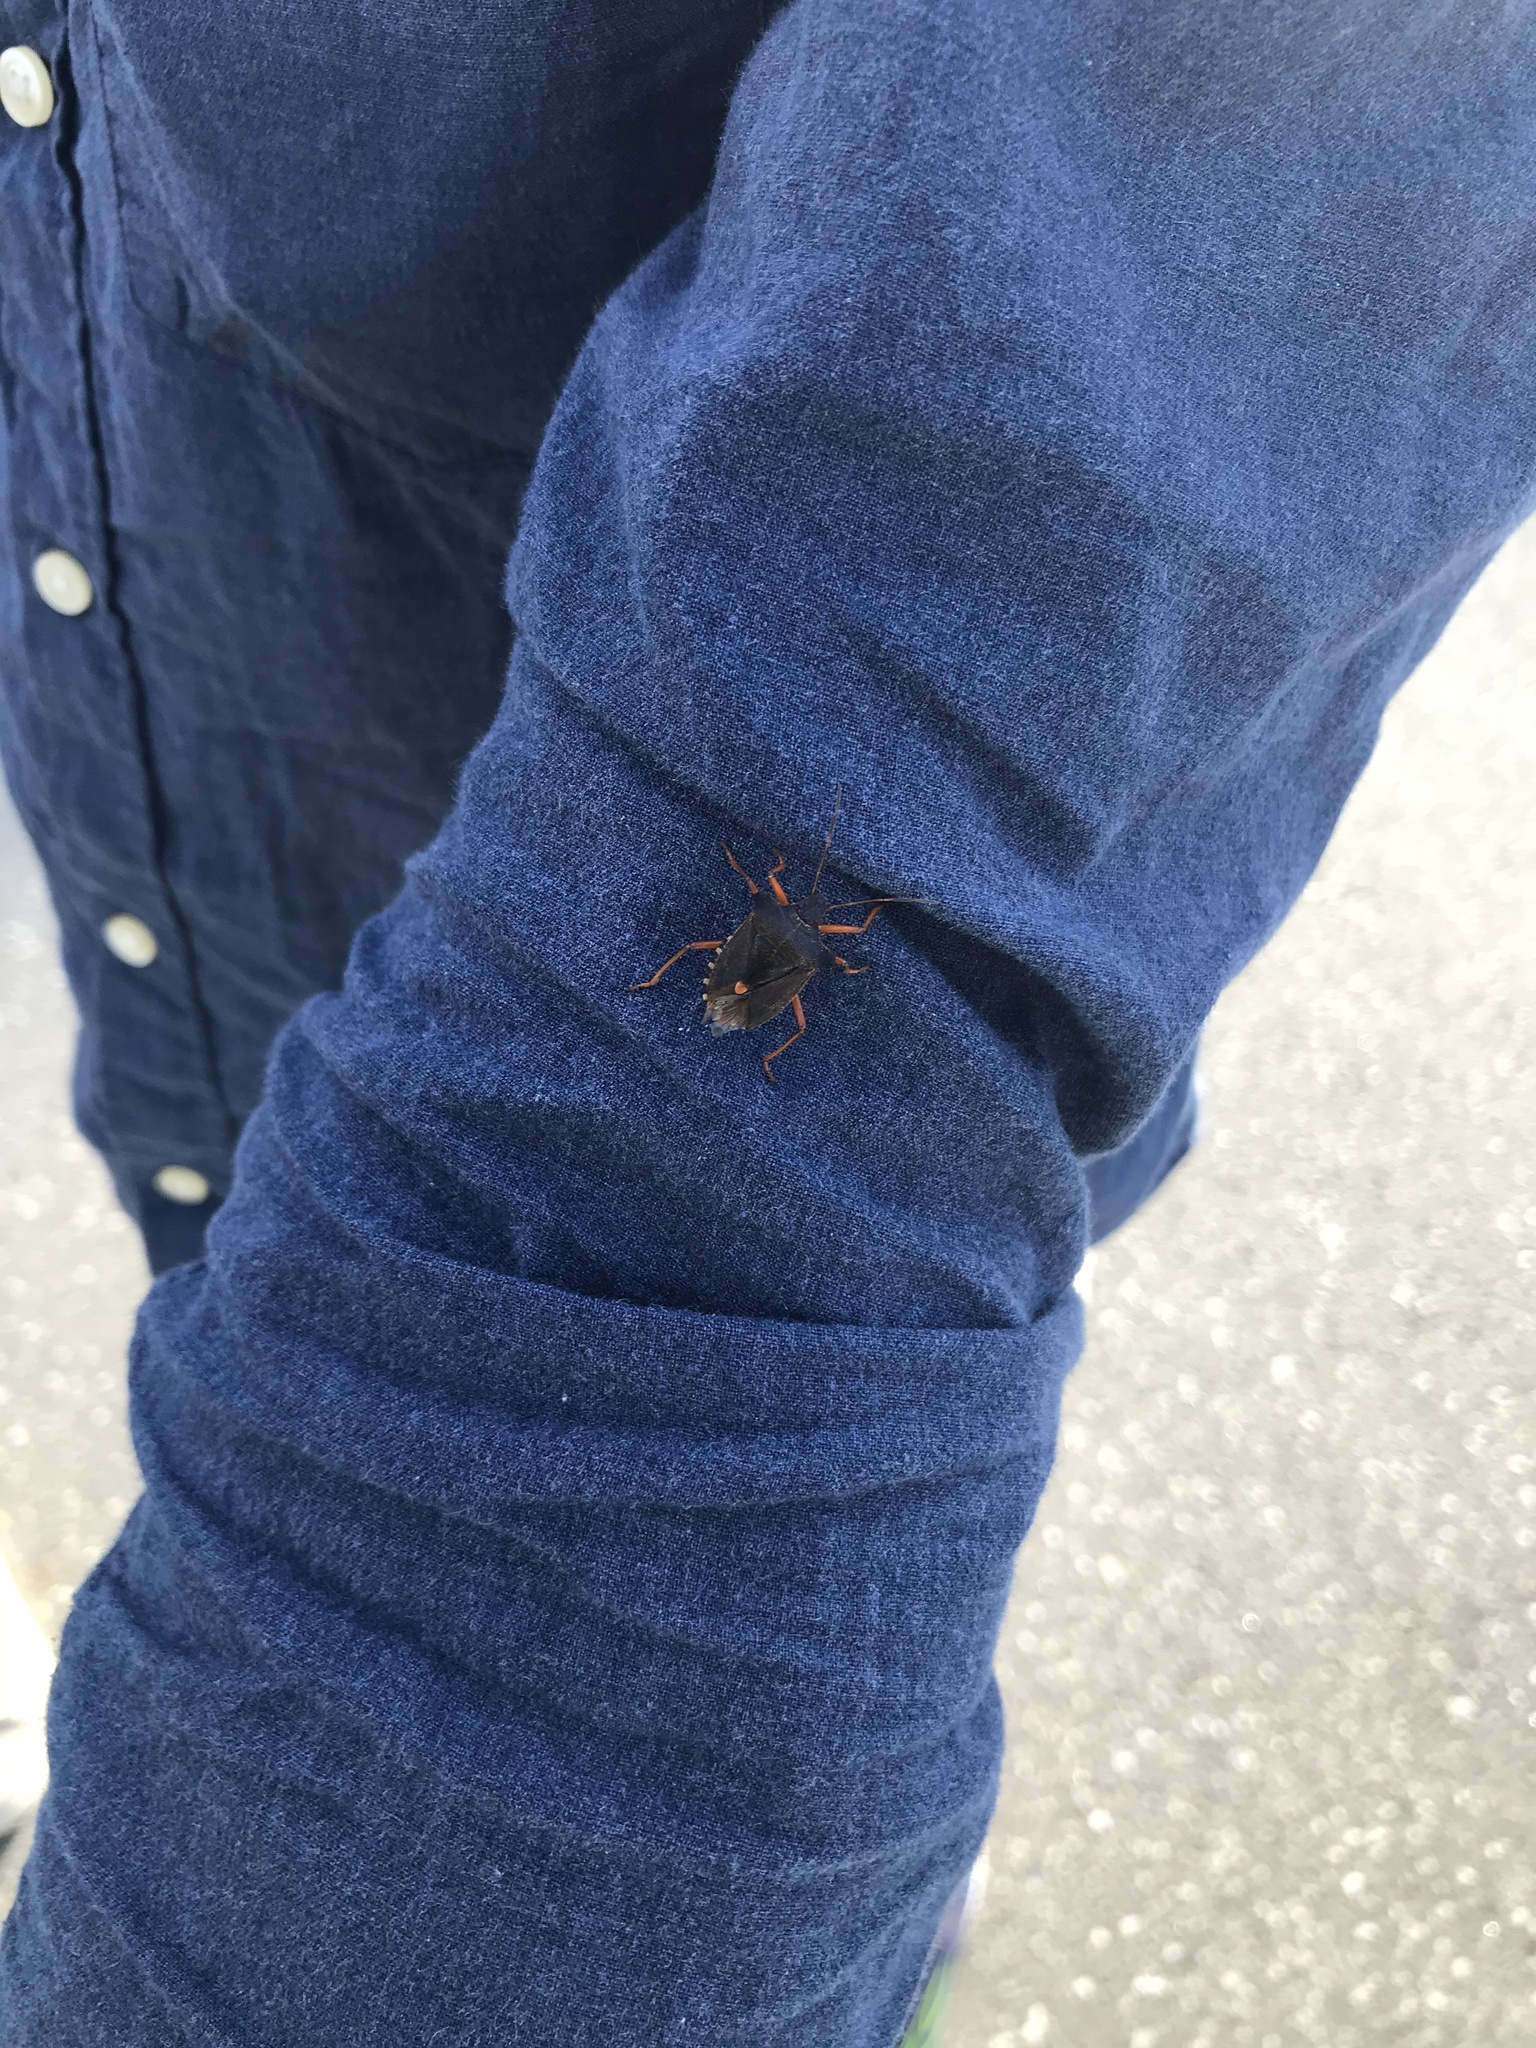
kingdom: Animalia
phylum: Arthropoda
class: Insecta
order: Hemiptera
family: Pentatomidae
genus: Pentatoma
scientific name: Pentatoma rufipes
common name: Forest bug
